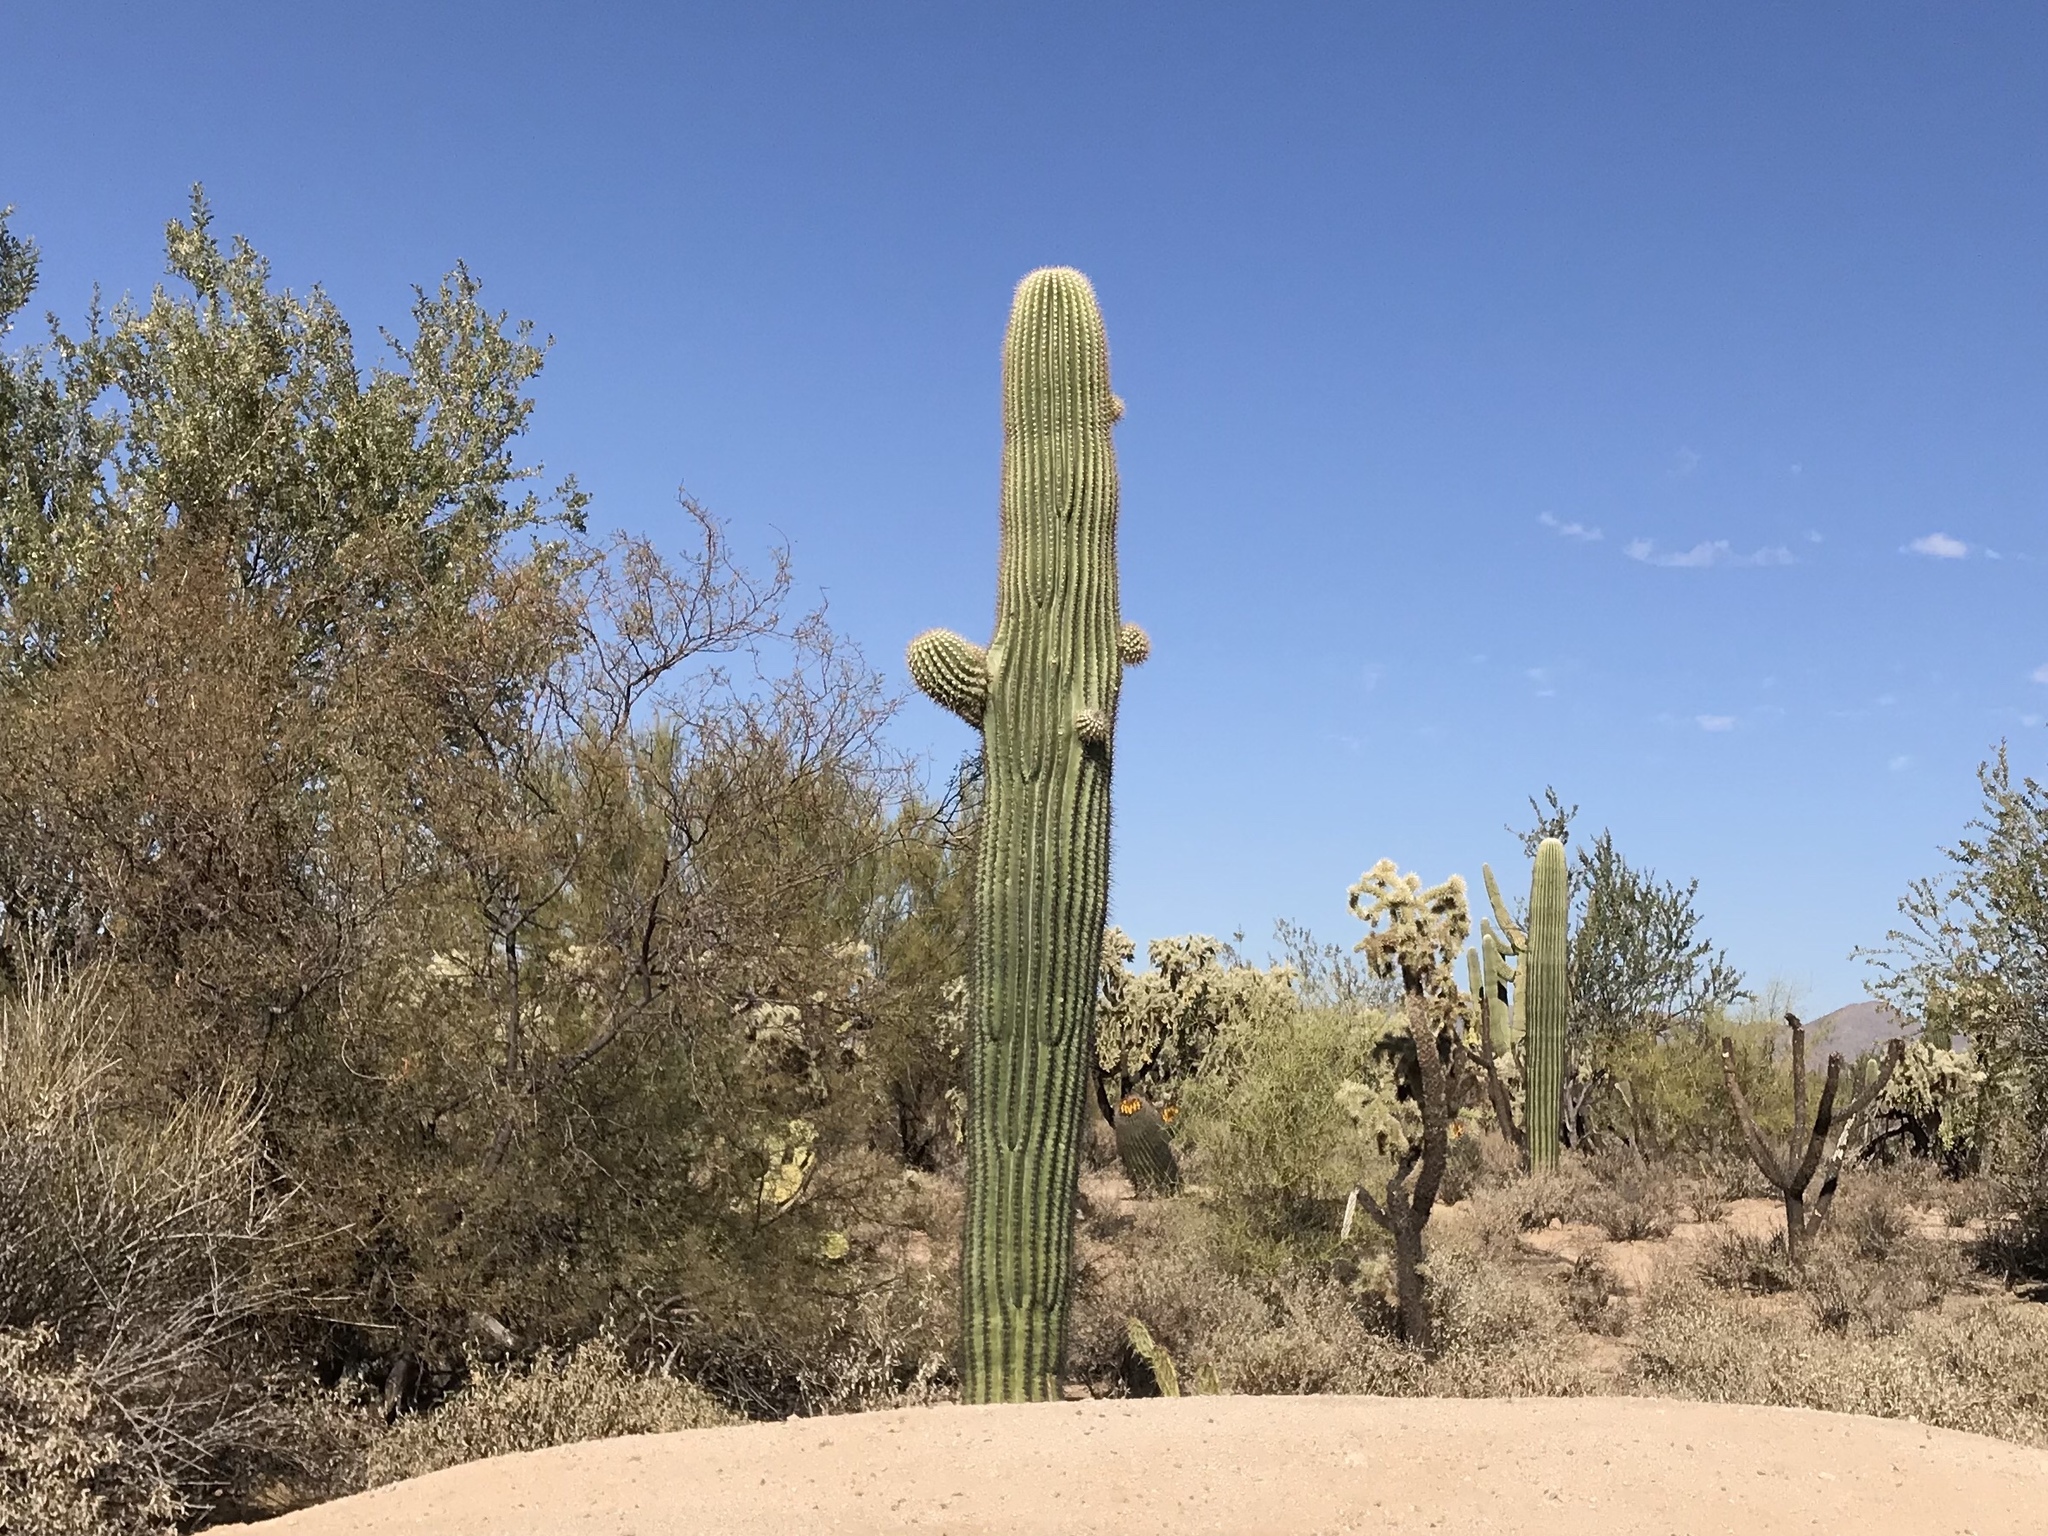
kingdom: Plantae
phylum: Tracheophyta
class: Magnoliopsida
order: Caryophyllales
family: Cactaceae
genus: Carnegiea
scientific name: Carnegiea gigantea
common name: Saguaro
